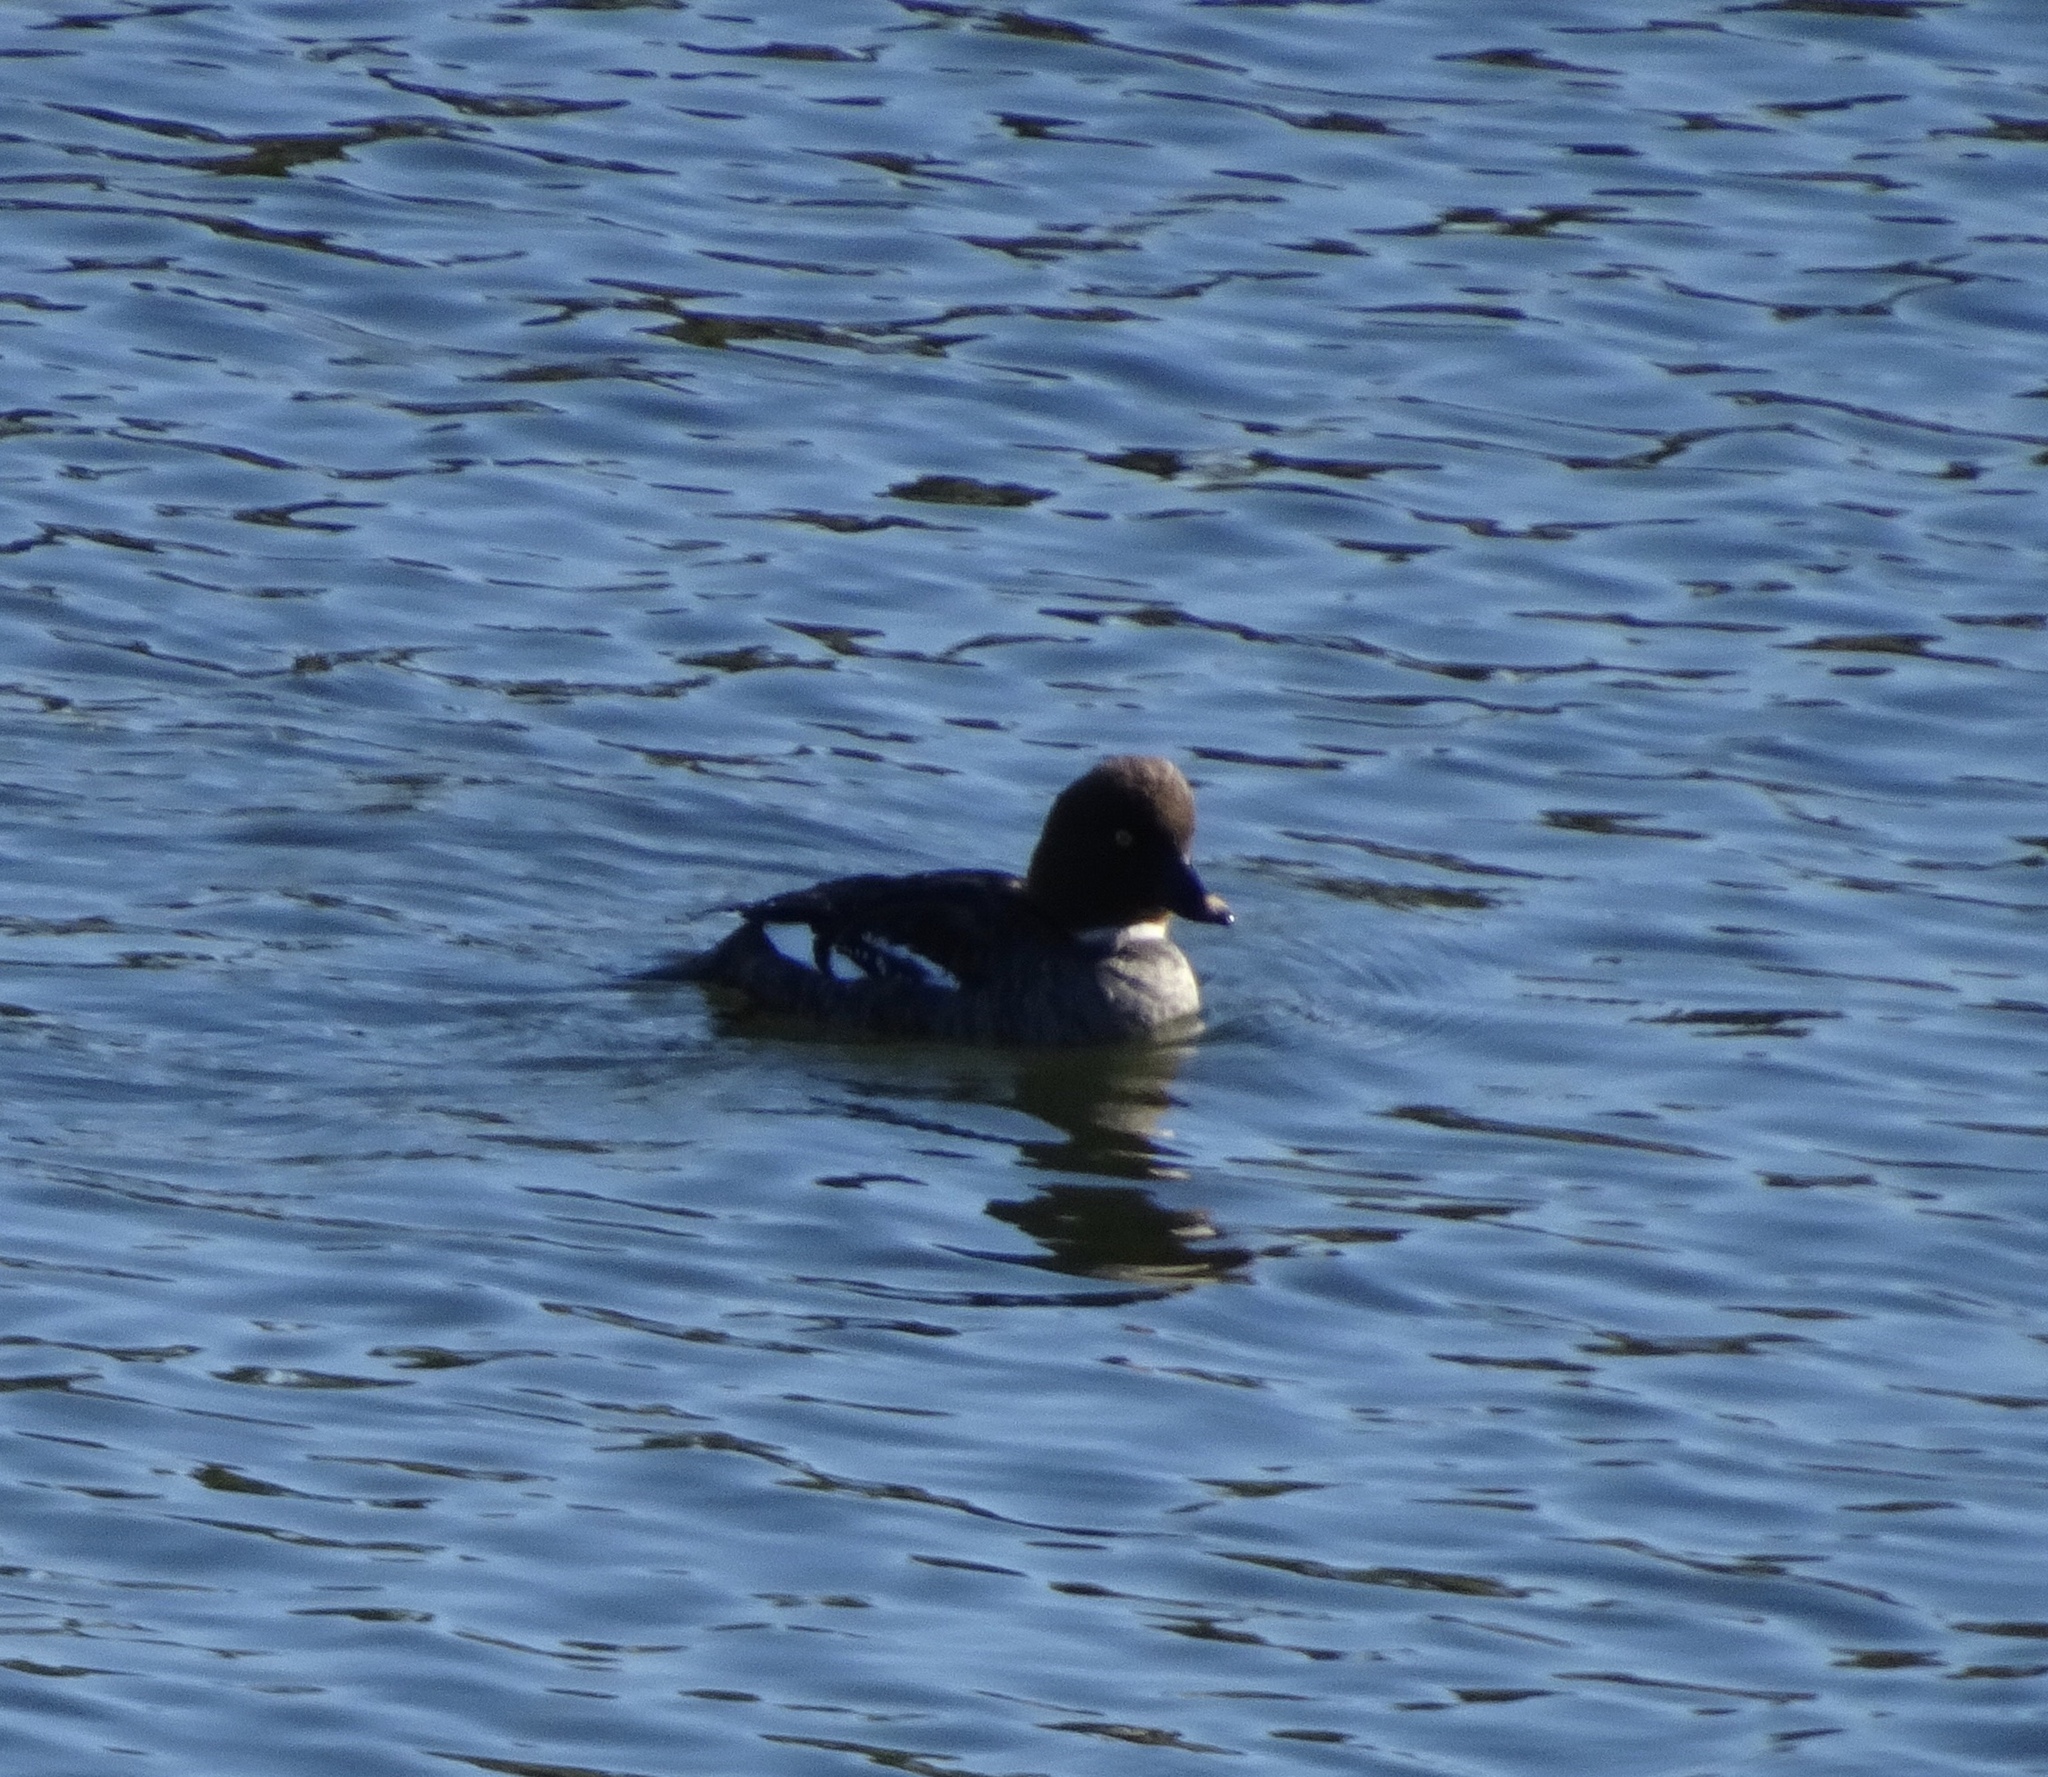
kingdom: Animalia
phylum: Chordata
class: Aves
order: Anseriformes
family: Anatidae
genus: Bucephala
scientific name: Bucephala clangula
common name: Common goldeneye
